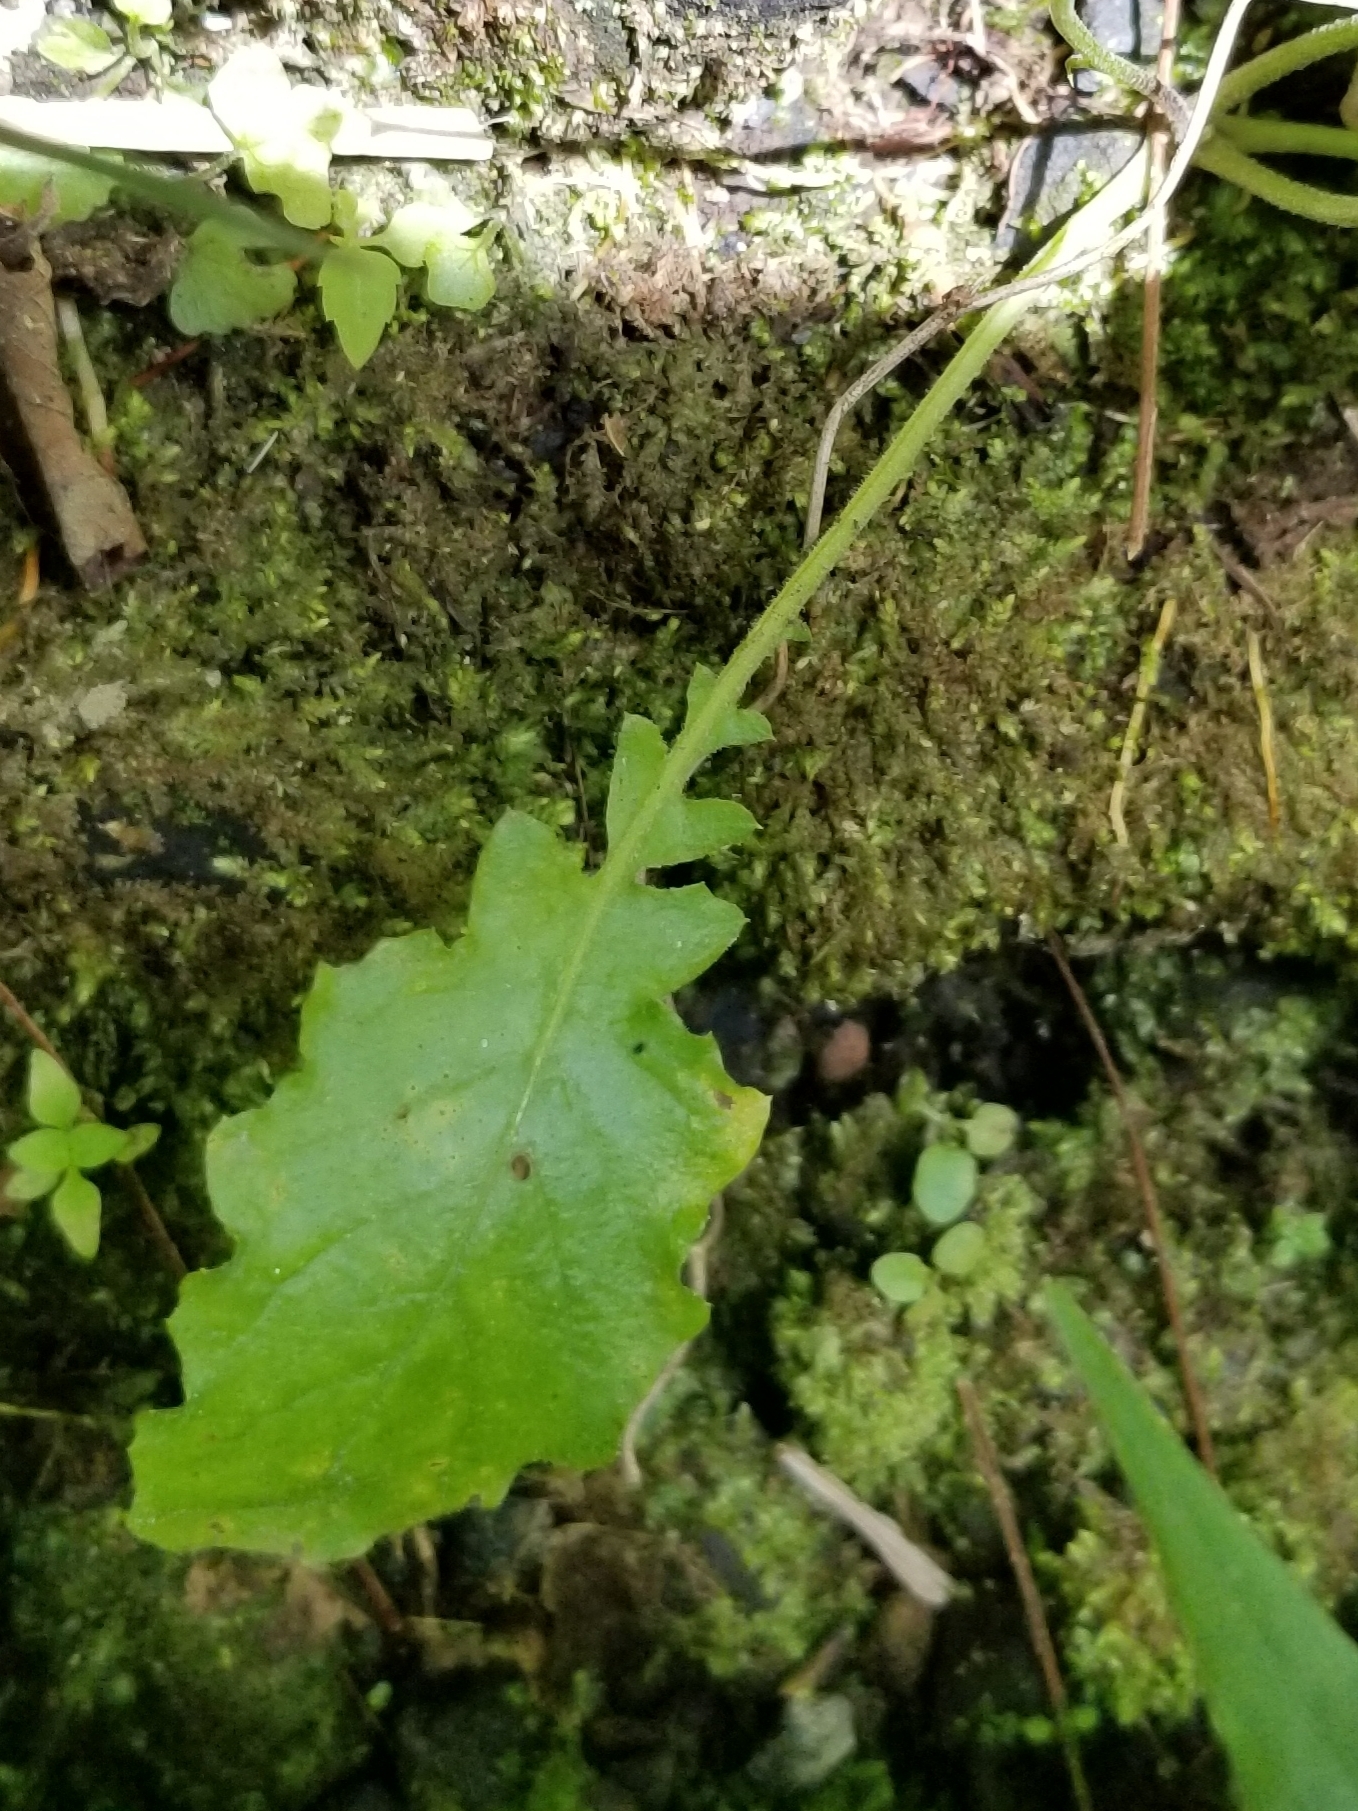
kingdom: Plantae
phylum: Tracheophyta
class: Magnoliopsida
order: Asterales
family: Asteraceae
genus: Youngia
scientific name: Youngia japonica
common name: Oriental false hawksbeard
